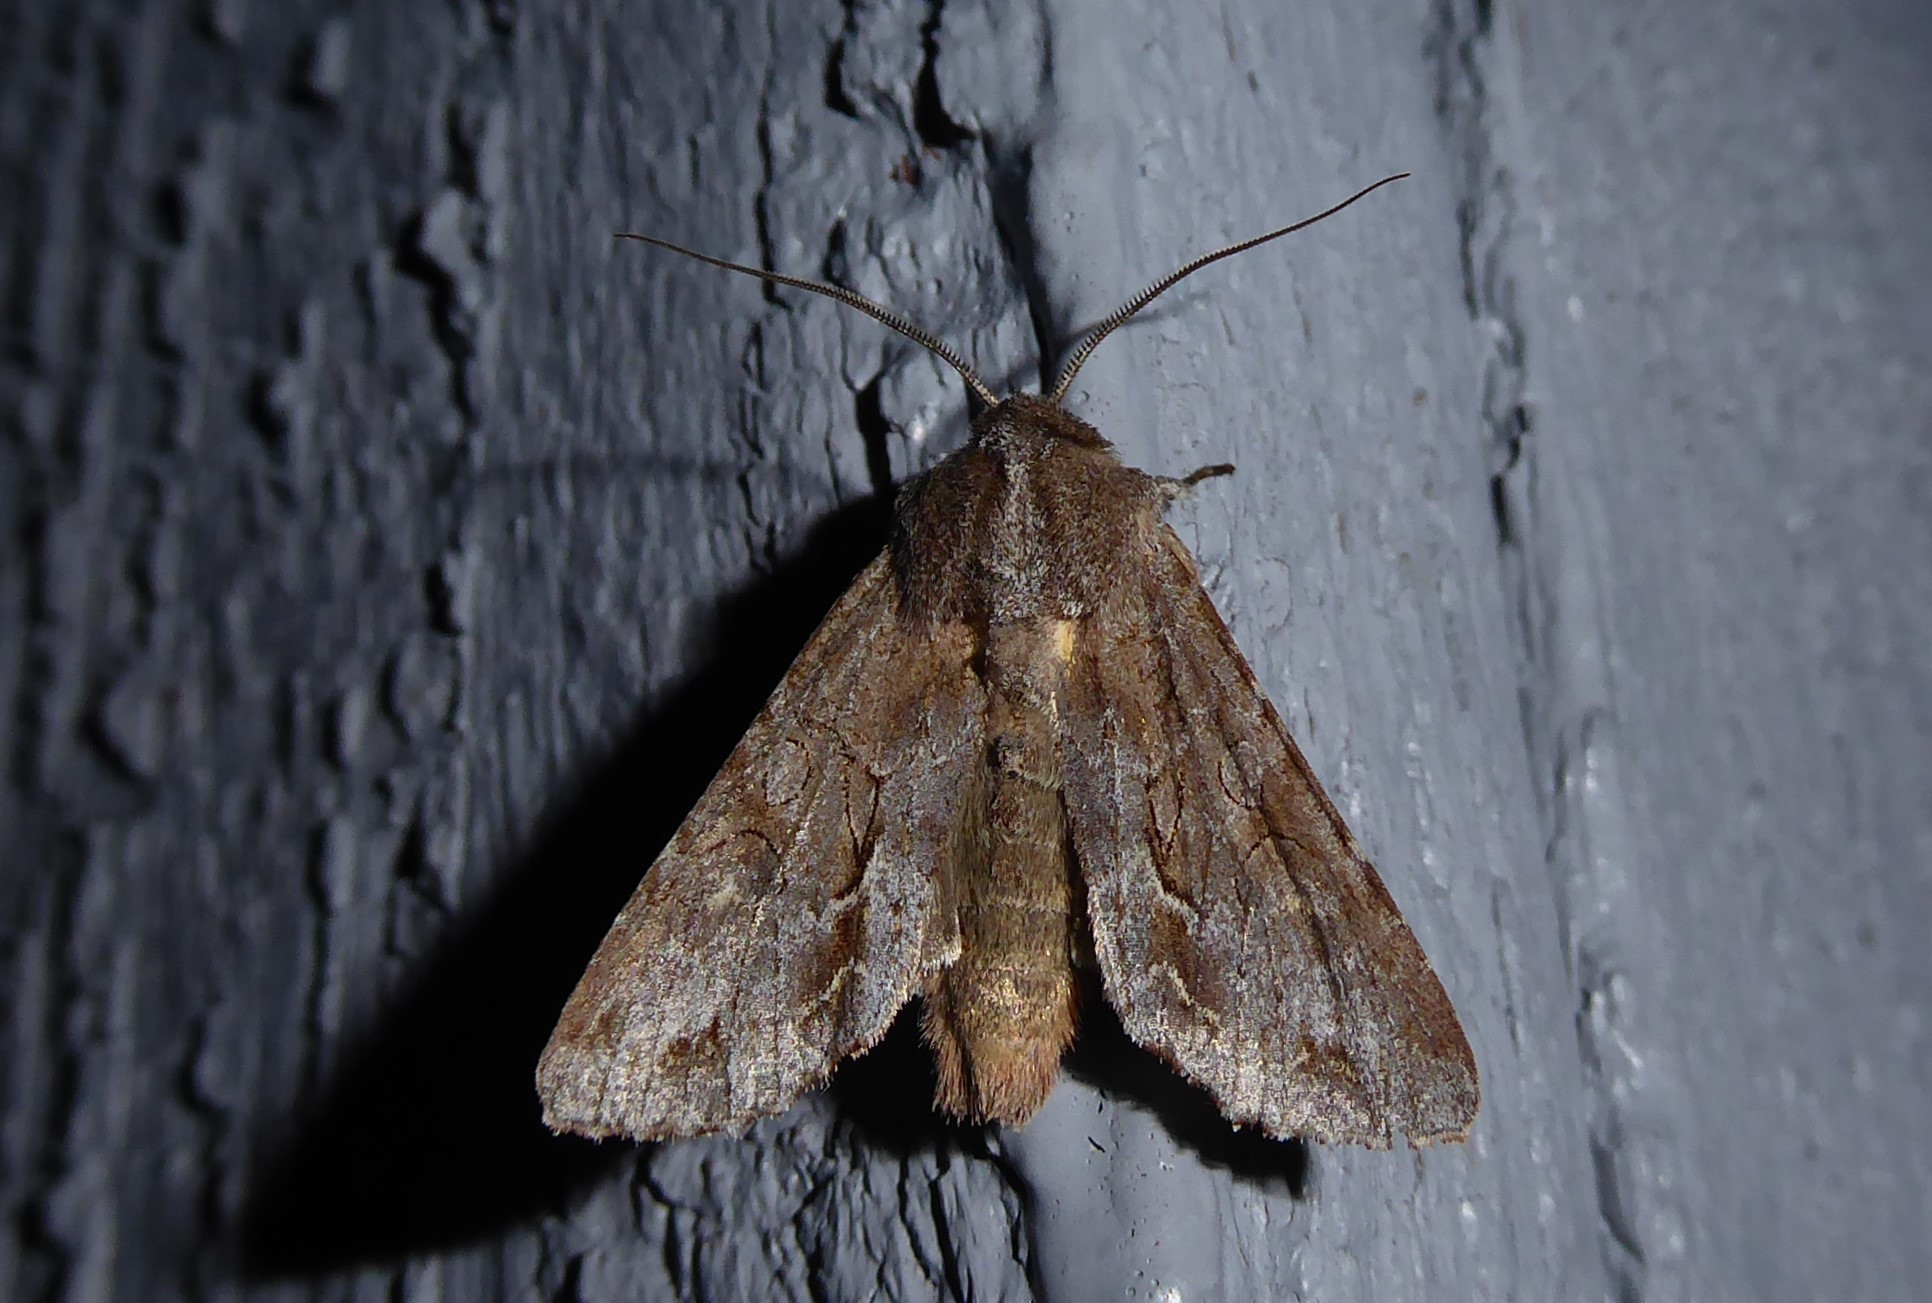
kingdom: Animalia
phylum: Arthropoda
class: Insecta
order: Lepidoptera
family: Noctuidae
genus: Ichneutica
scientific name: Ichneutica
